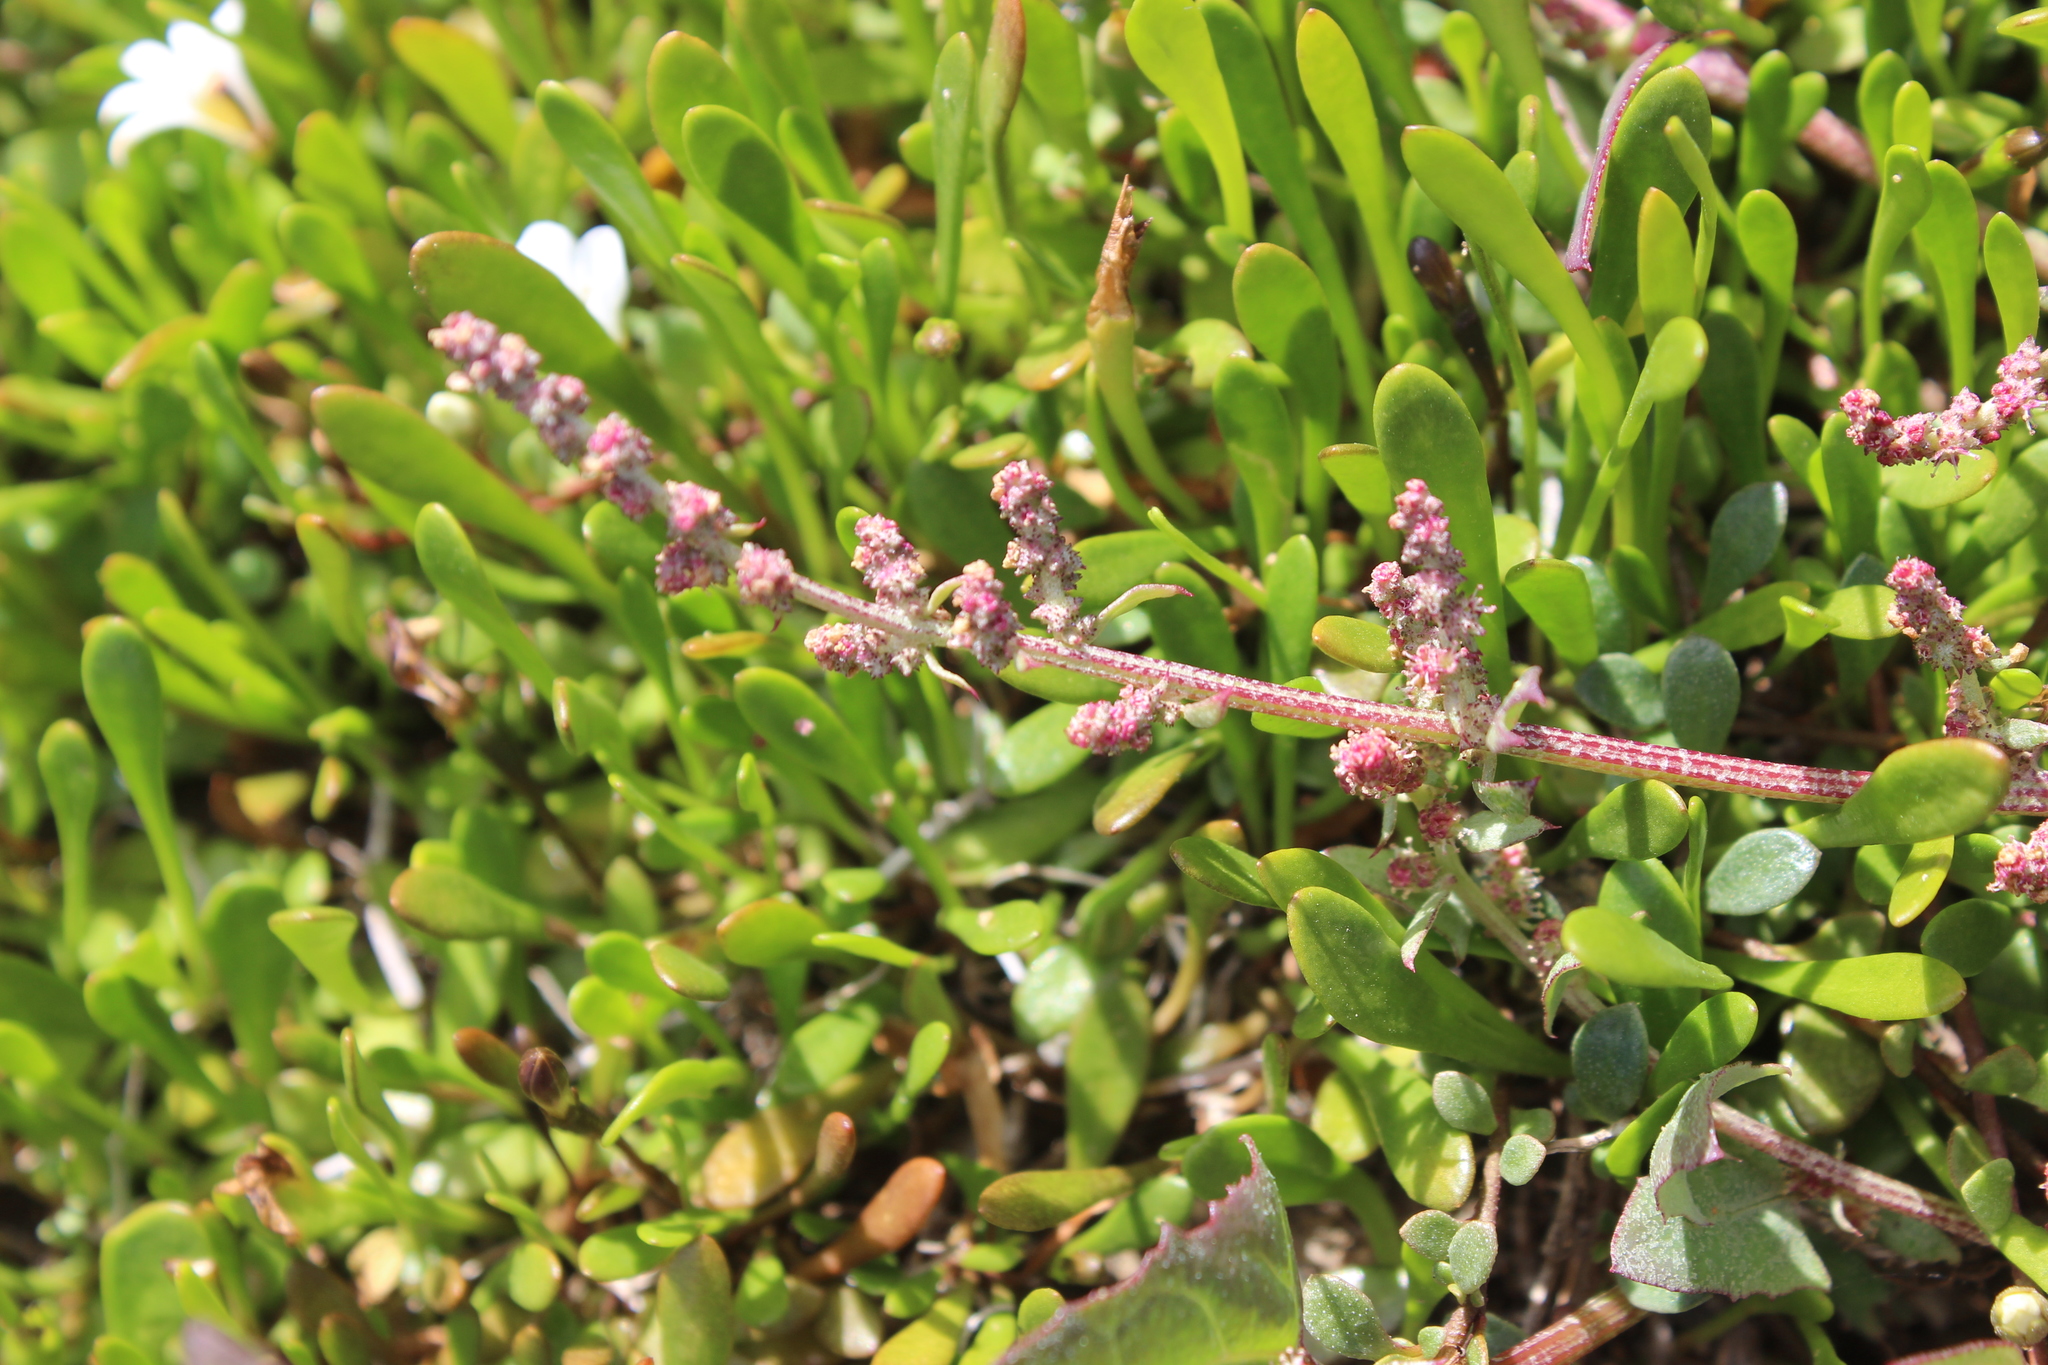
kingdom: Plantae
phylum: Tracheophyta
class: Magnoliopsida
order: Caryophyllales
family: Amaranthaceae
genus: Atriplex
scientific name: Atriplex prostrata
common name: Spear-leaved orache
